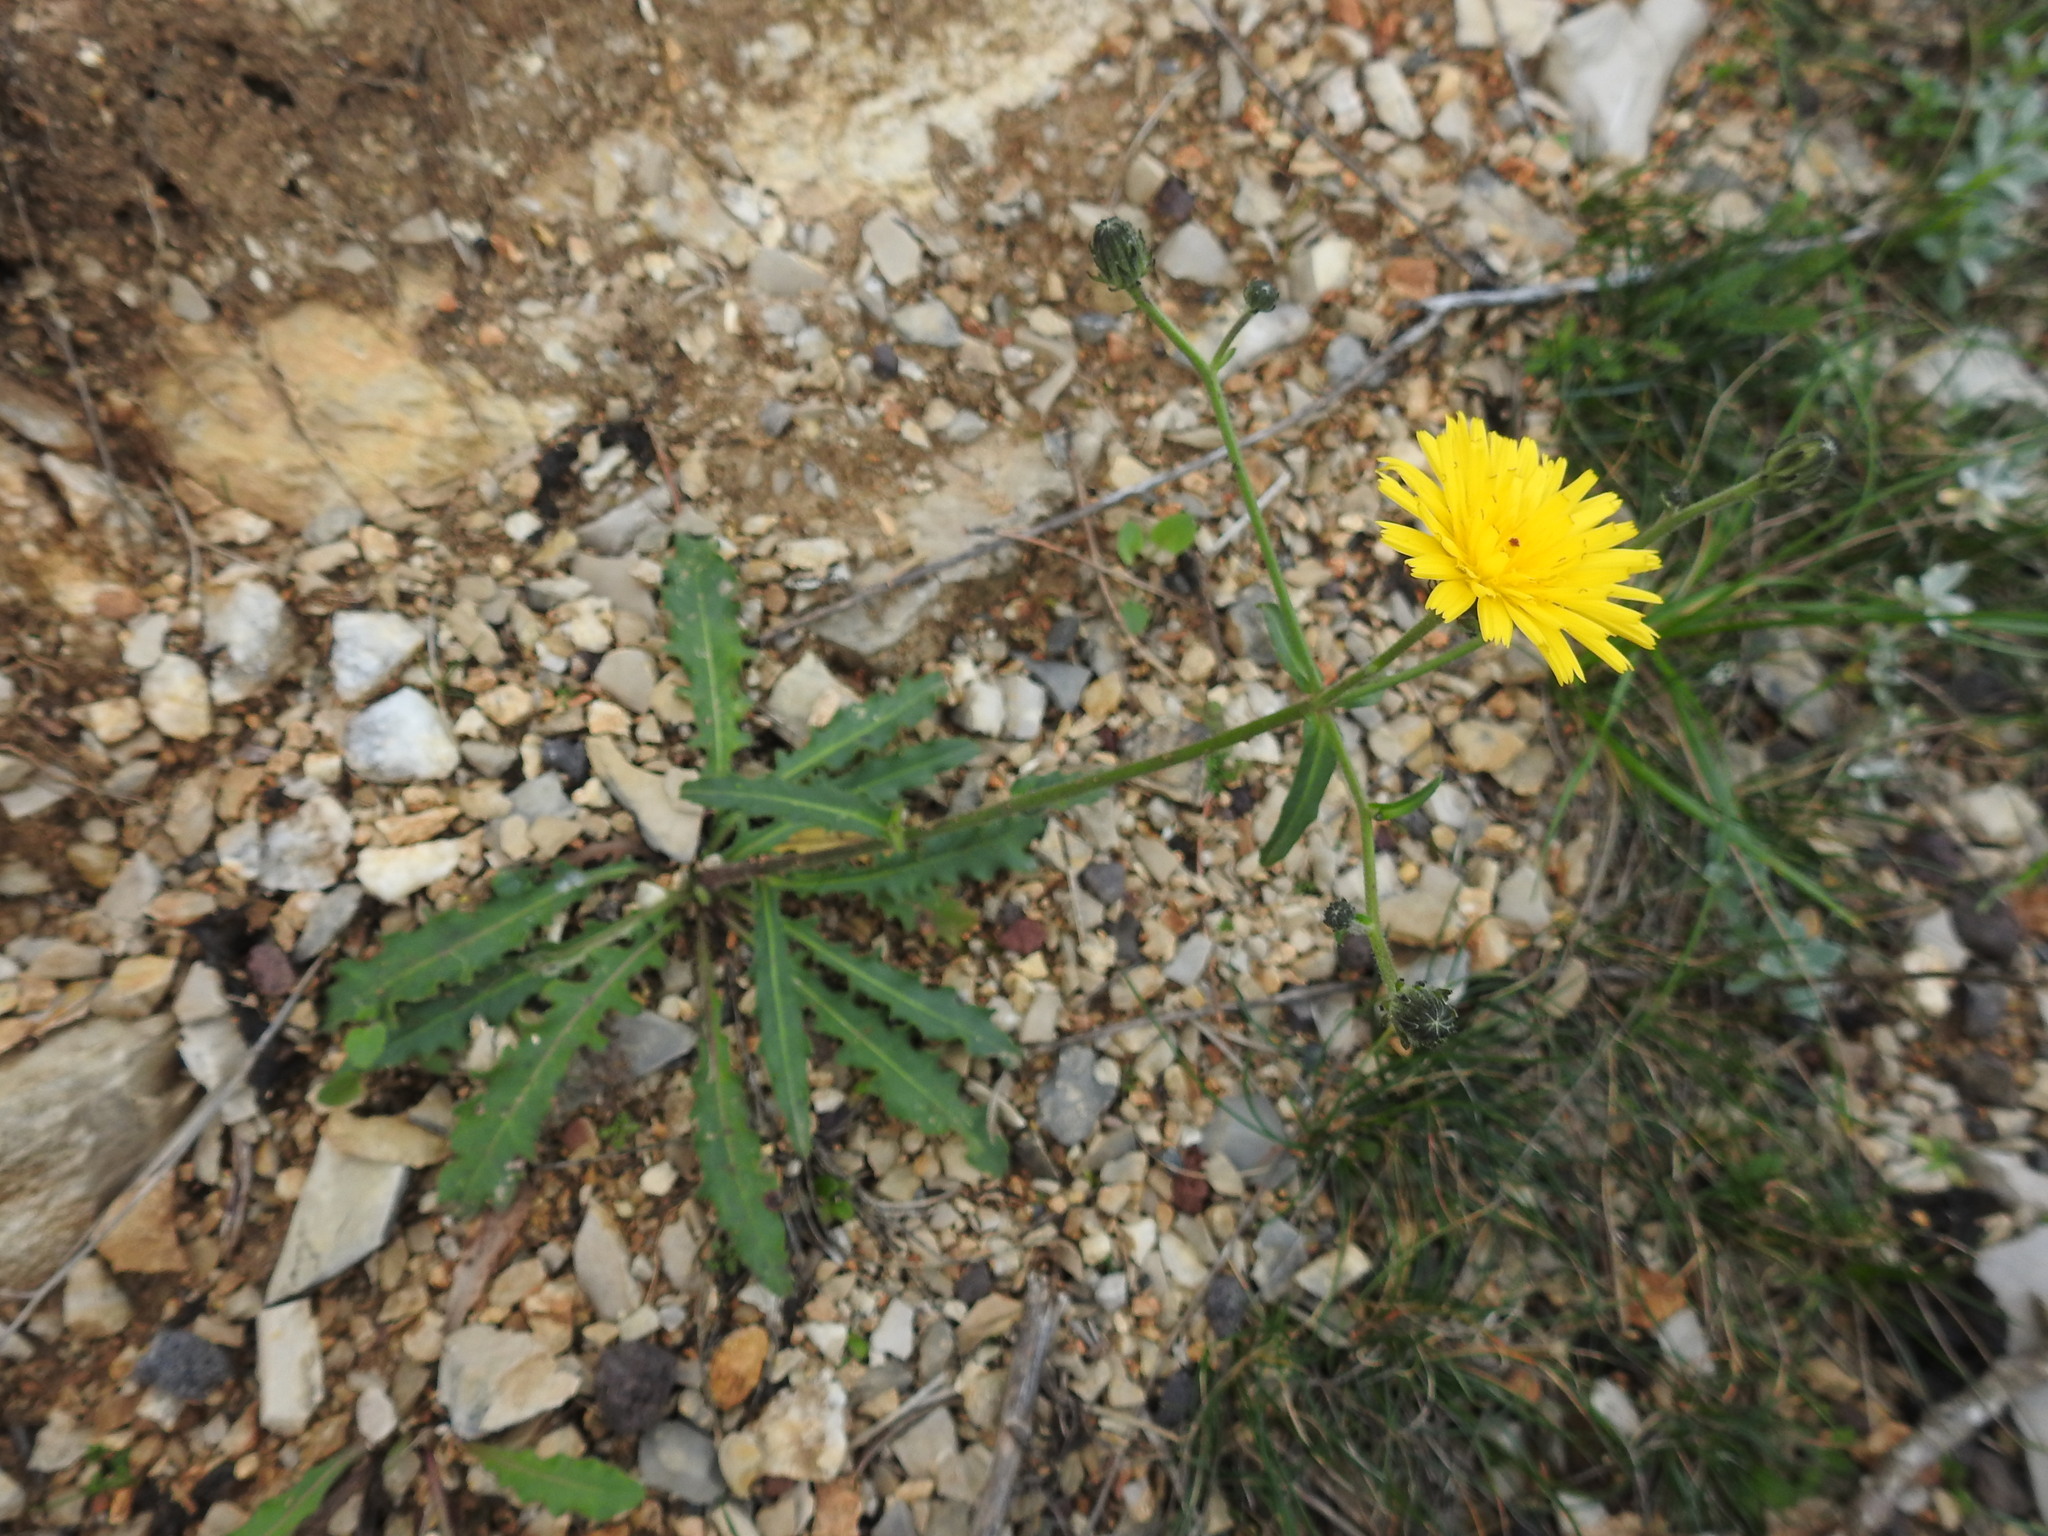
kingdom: Plantae
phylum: Tracheophyta
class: Magnoliopsida
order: Asterales
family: Asteraceae
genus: Picris
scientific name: Picris hieracioides
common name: Hawkweed oxtongue
